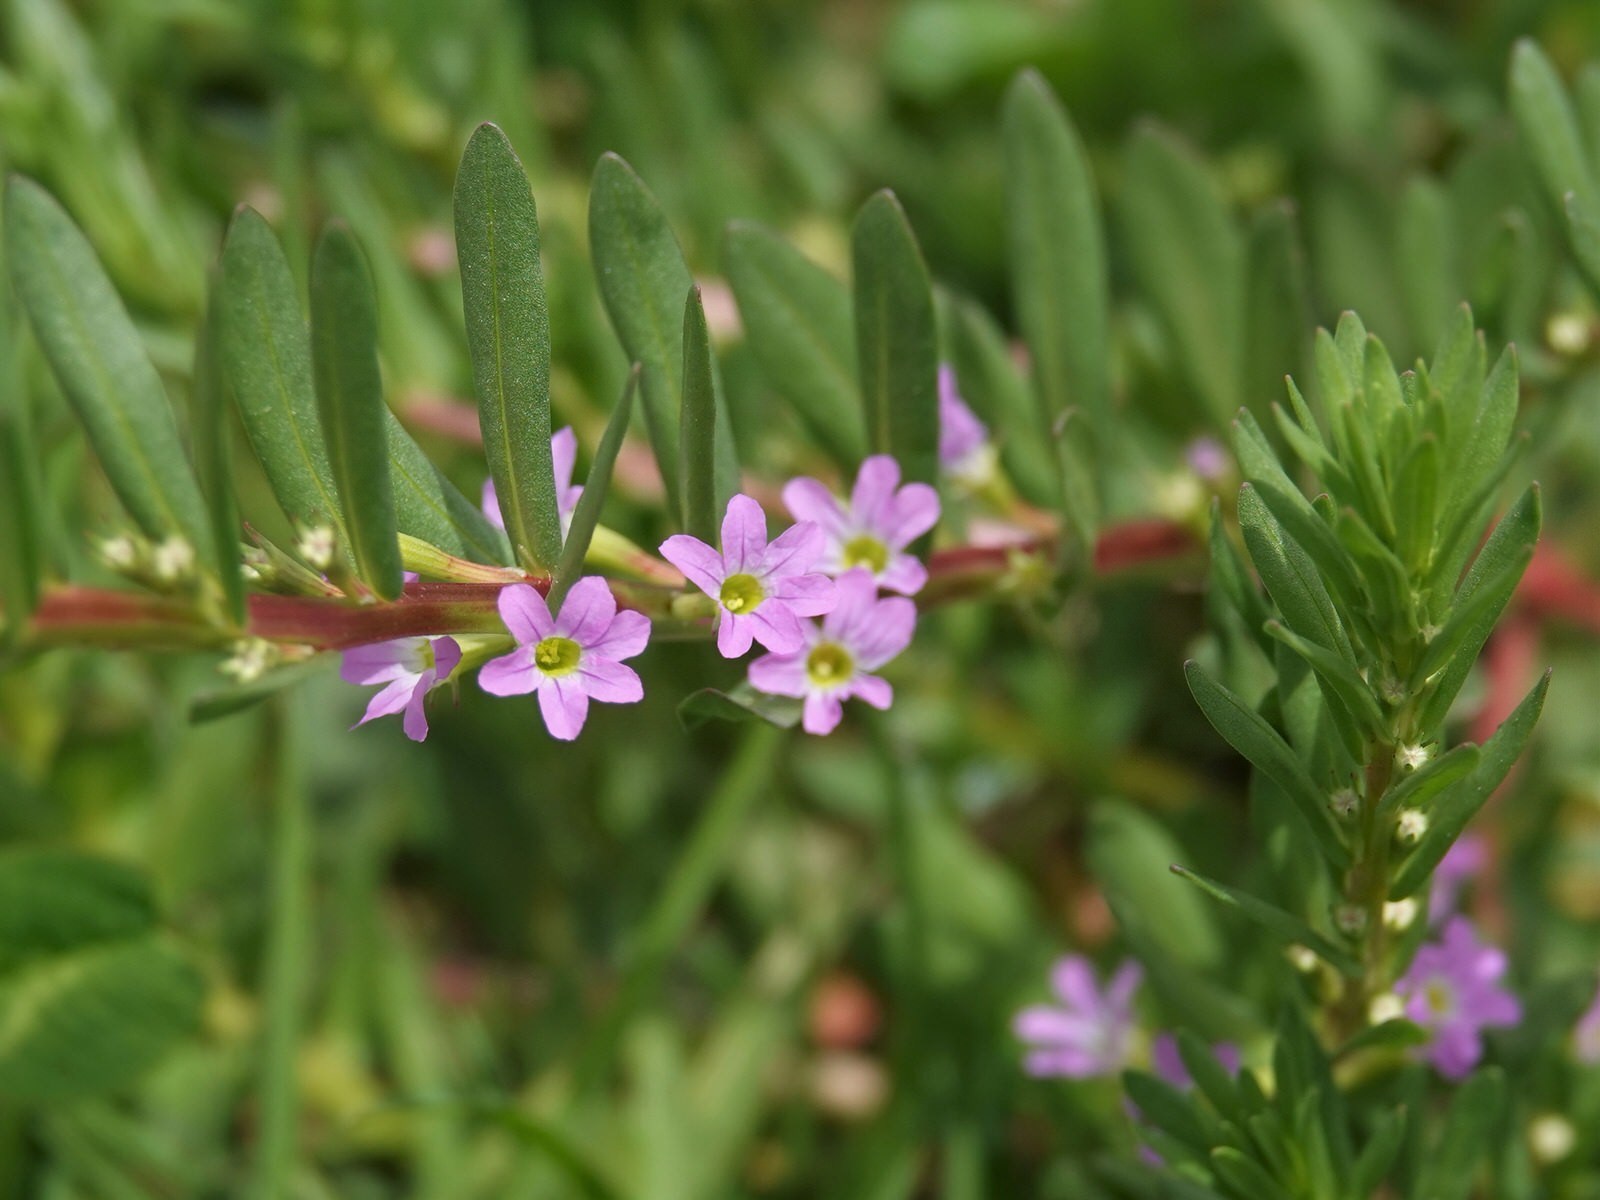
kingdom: Plantae
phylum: Tracheophyta
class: Magnoliopsida
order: Myrtales
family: Lythraceae
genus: Lythrum
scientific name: Lythrum hyssopifolia
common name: Grass-poly
